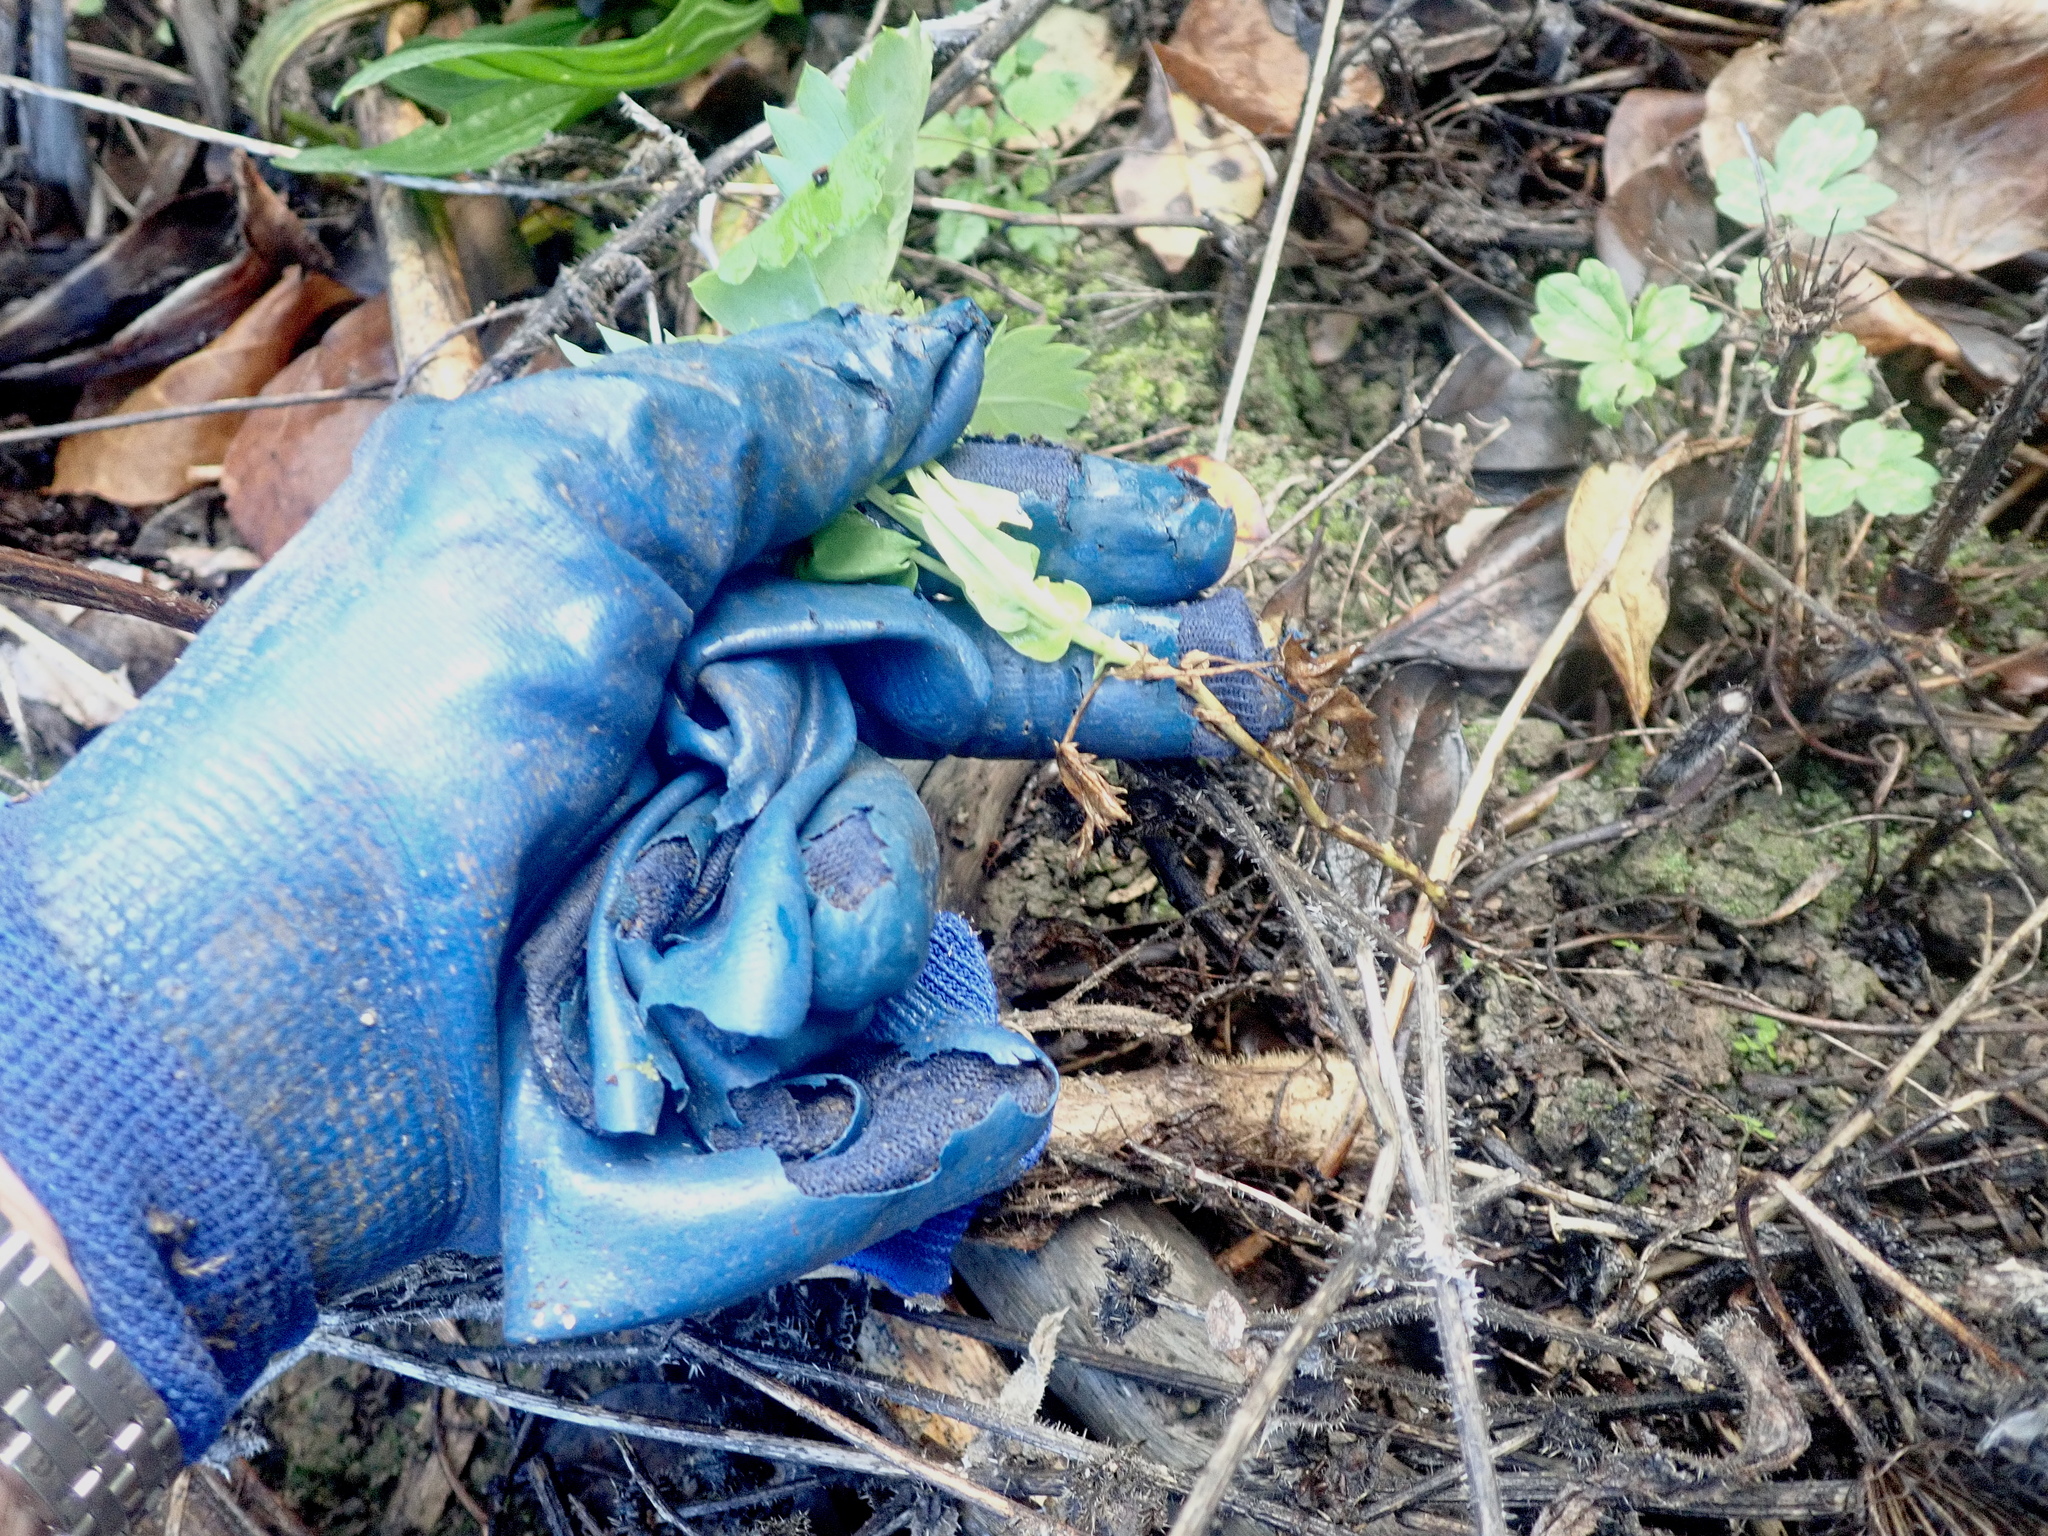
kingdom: Plantae
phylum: Tracheophyta
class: Magnoliopsida
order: Geraniales
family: Melianthaceae
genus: Melianthus
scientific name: Melianthus major
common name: Honey-flower
